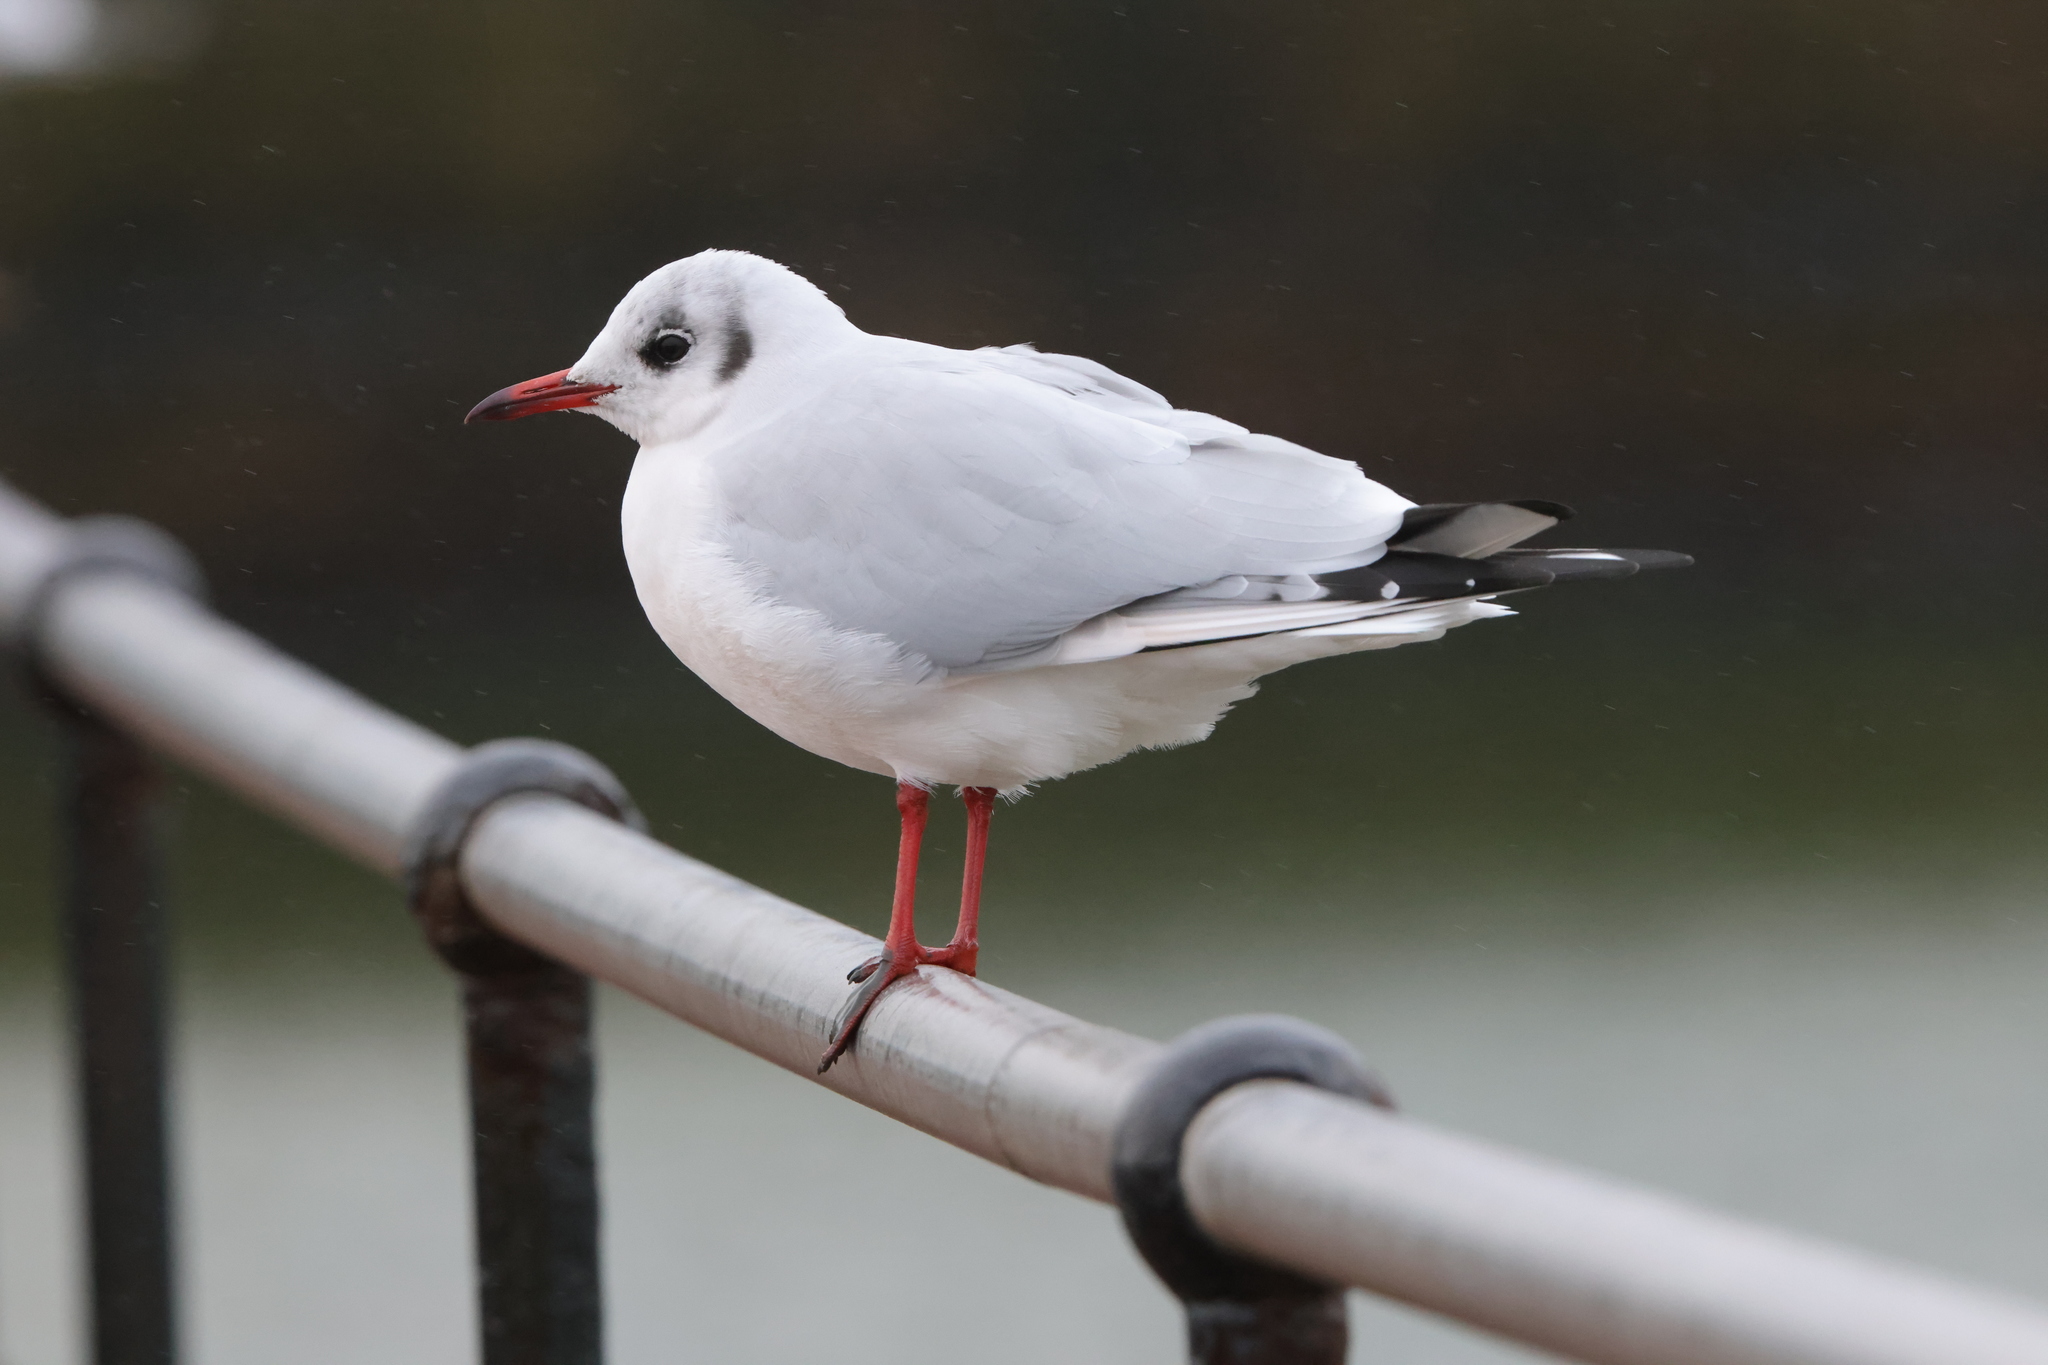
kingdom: Animalia
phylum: Chordata
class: Aves
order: Charadriiformes
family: Laridae
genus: Chroicocephalus
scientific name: Chroicocephalus ridibundus
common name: Black-headed gull
